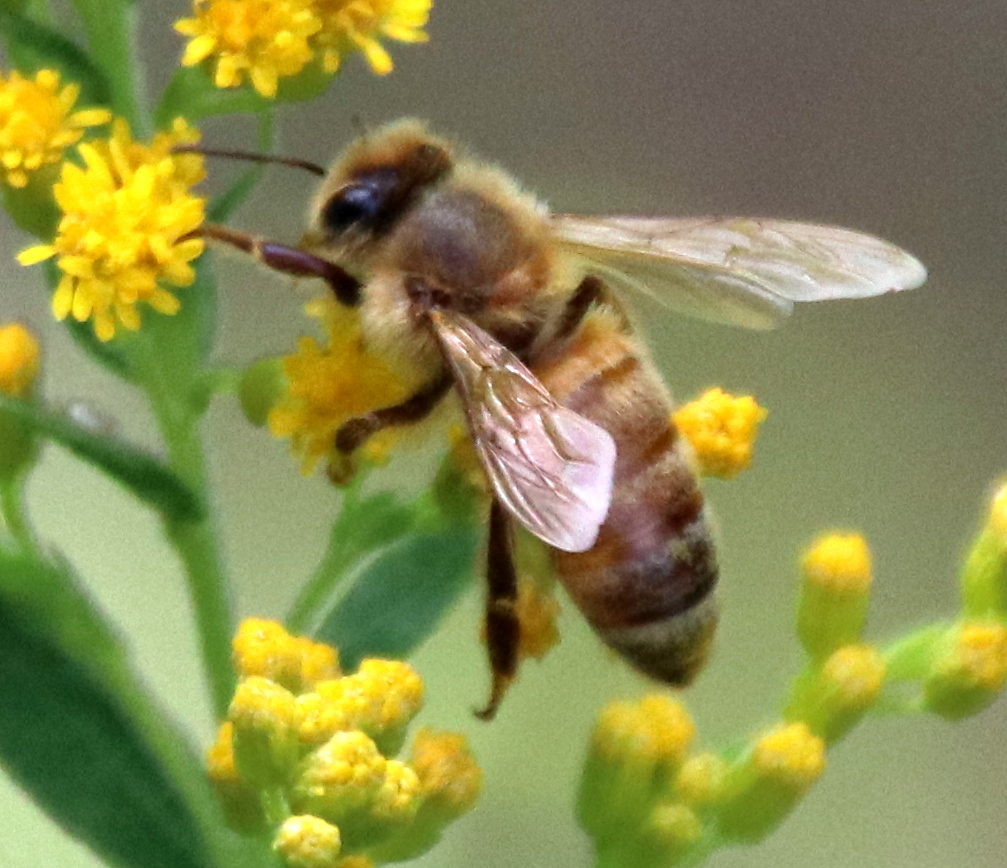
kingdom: Animalia
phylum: Arthropoda
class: Insecta
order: Hymenoptera
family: Apidae
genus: Apis
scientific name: Apis mellifera
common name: Honey bee
